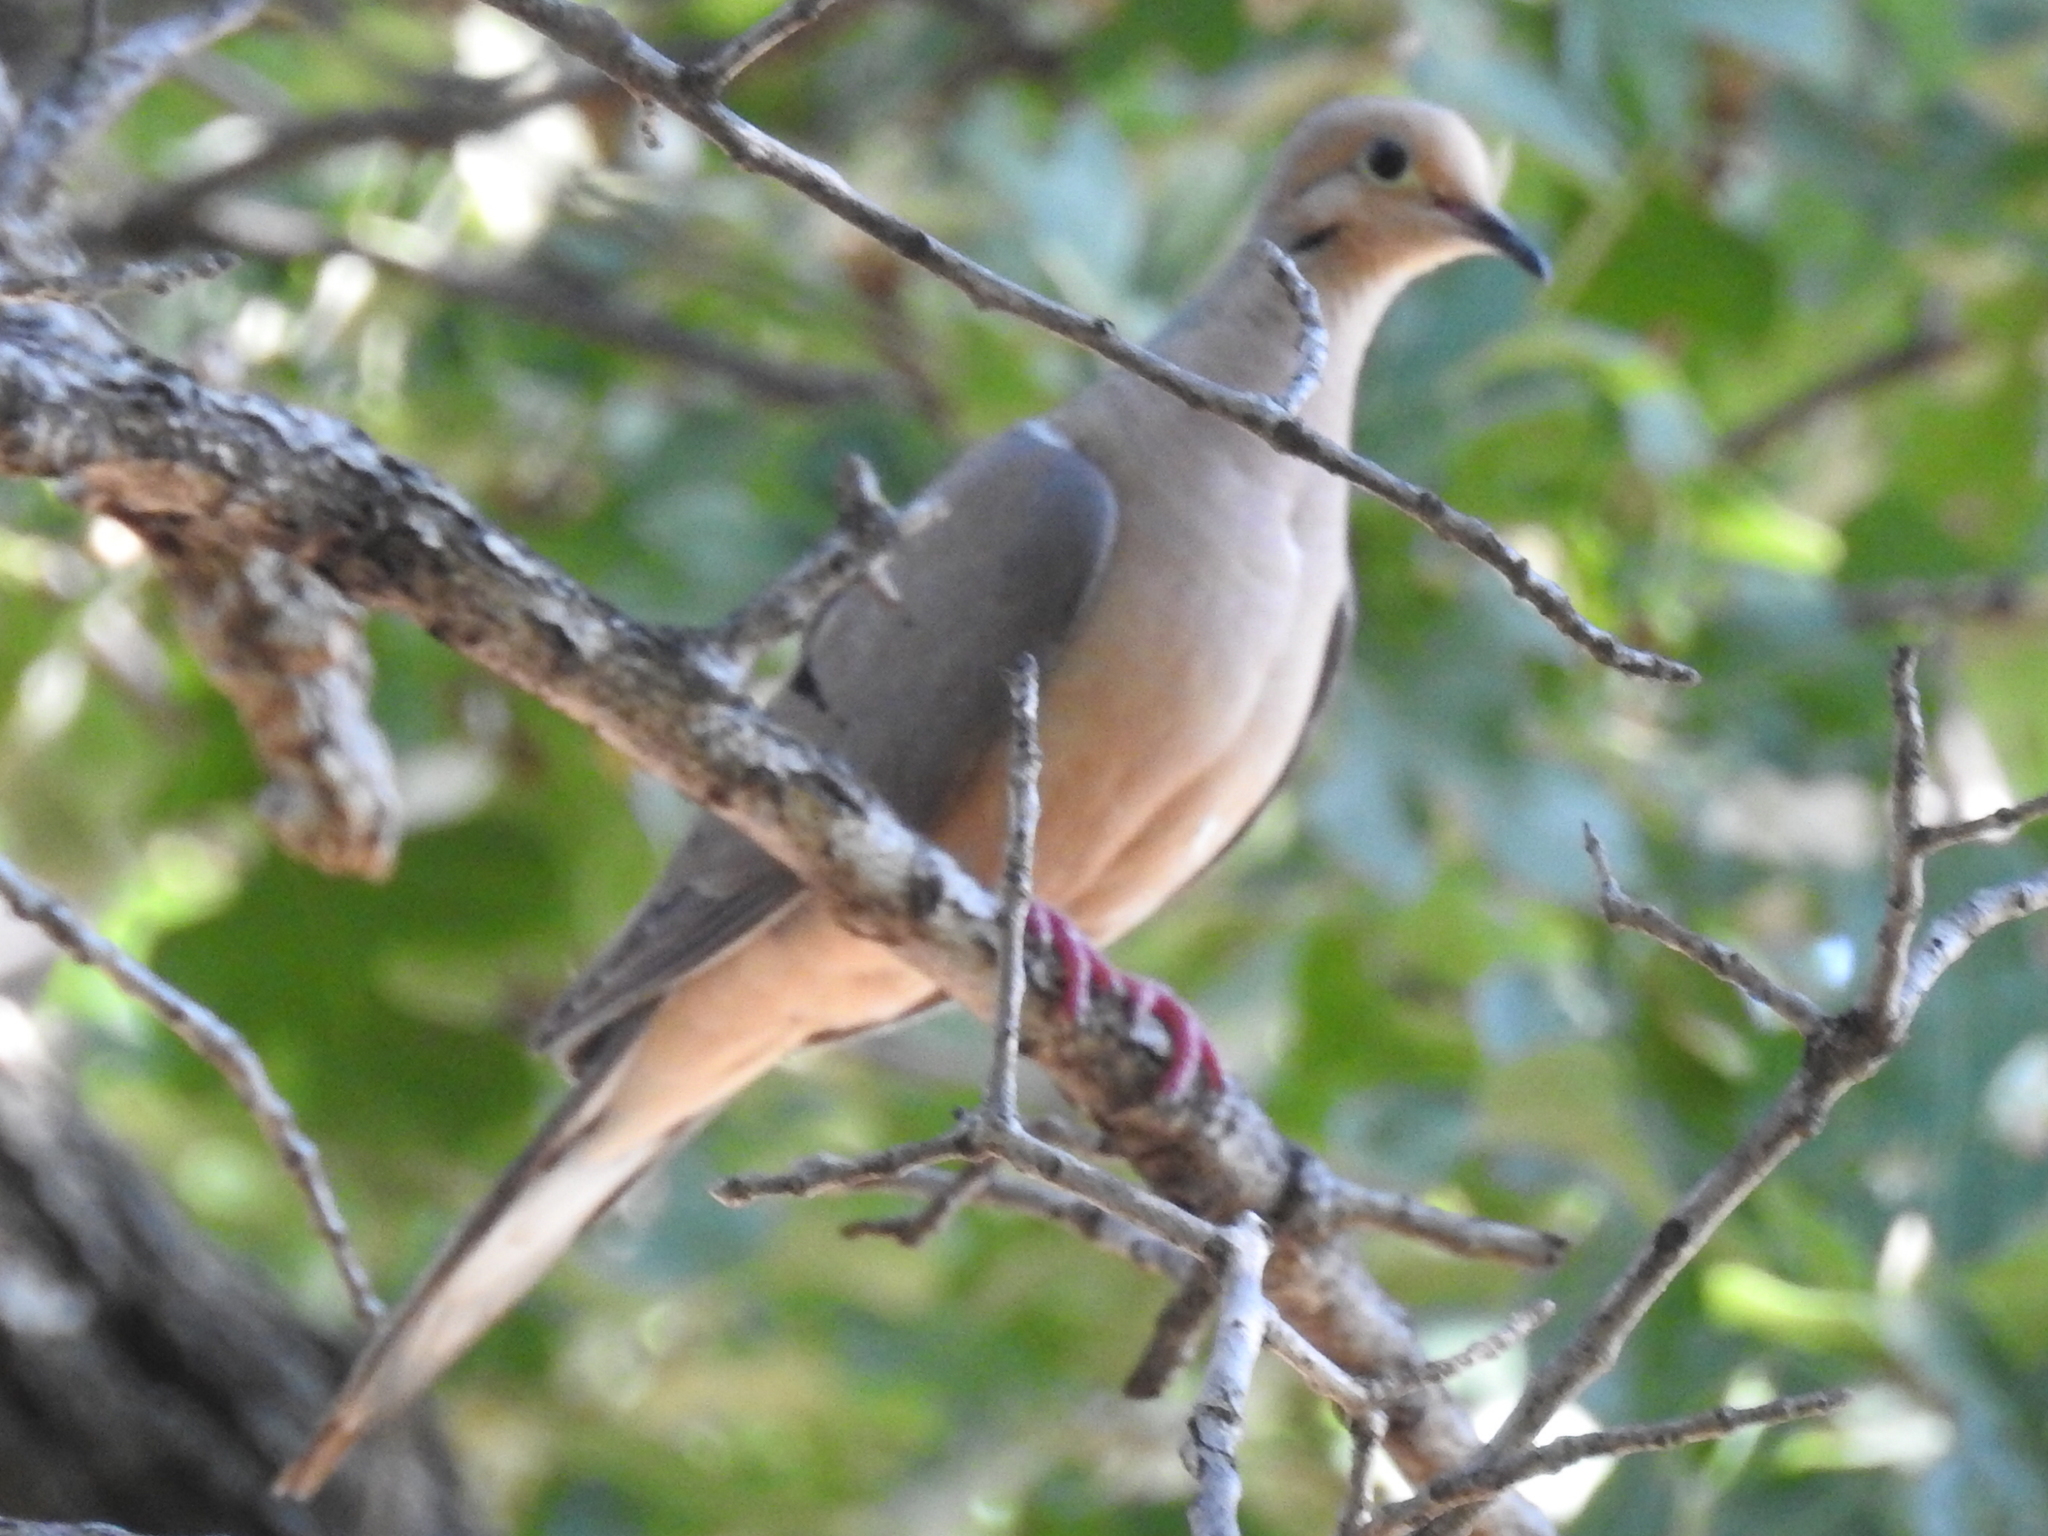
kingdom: Animalia
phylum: Chordata
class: Aves
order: Columbiformes
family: Columbidae
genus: Zenaida
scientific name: Zenaida macroura
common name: Mourning dove
